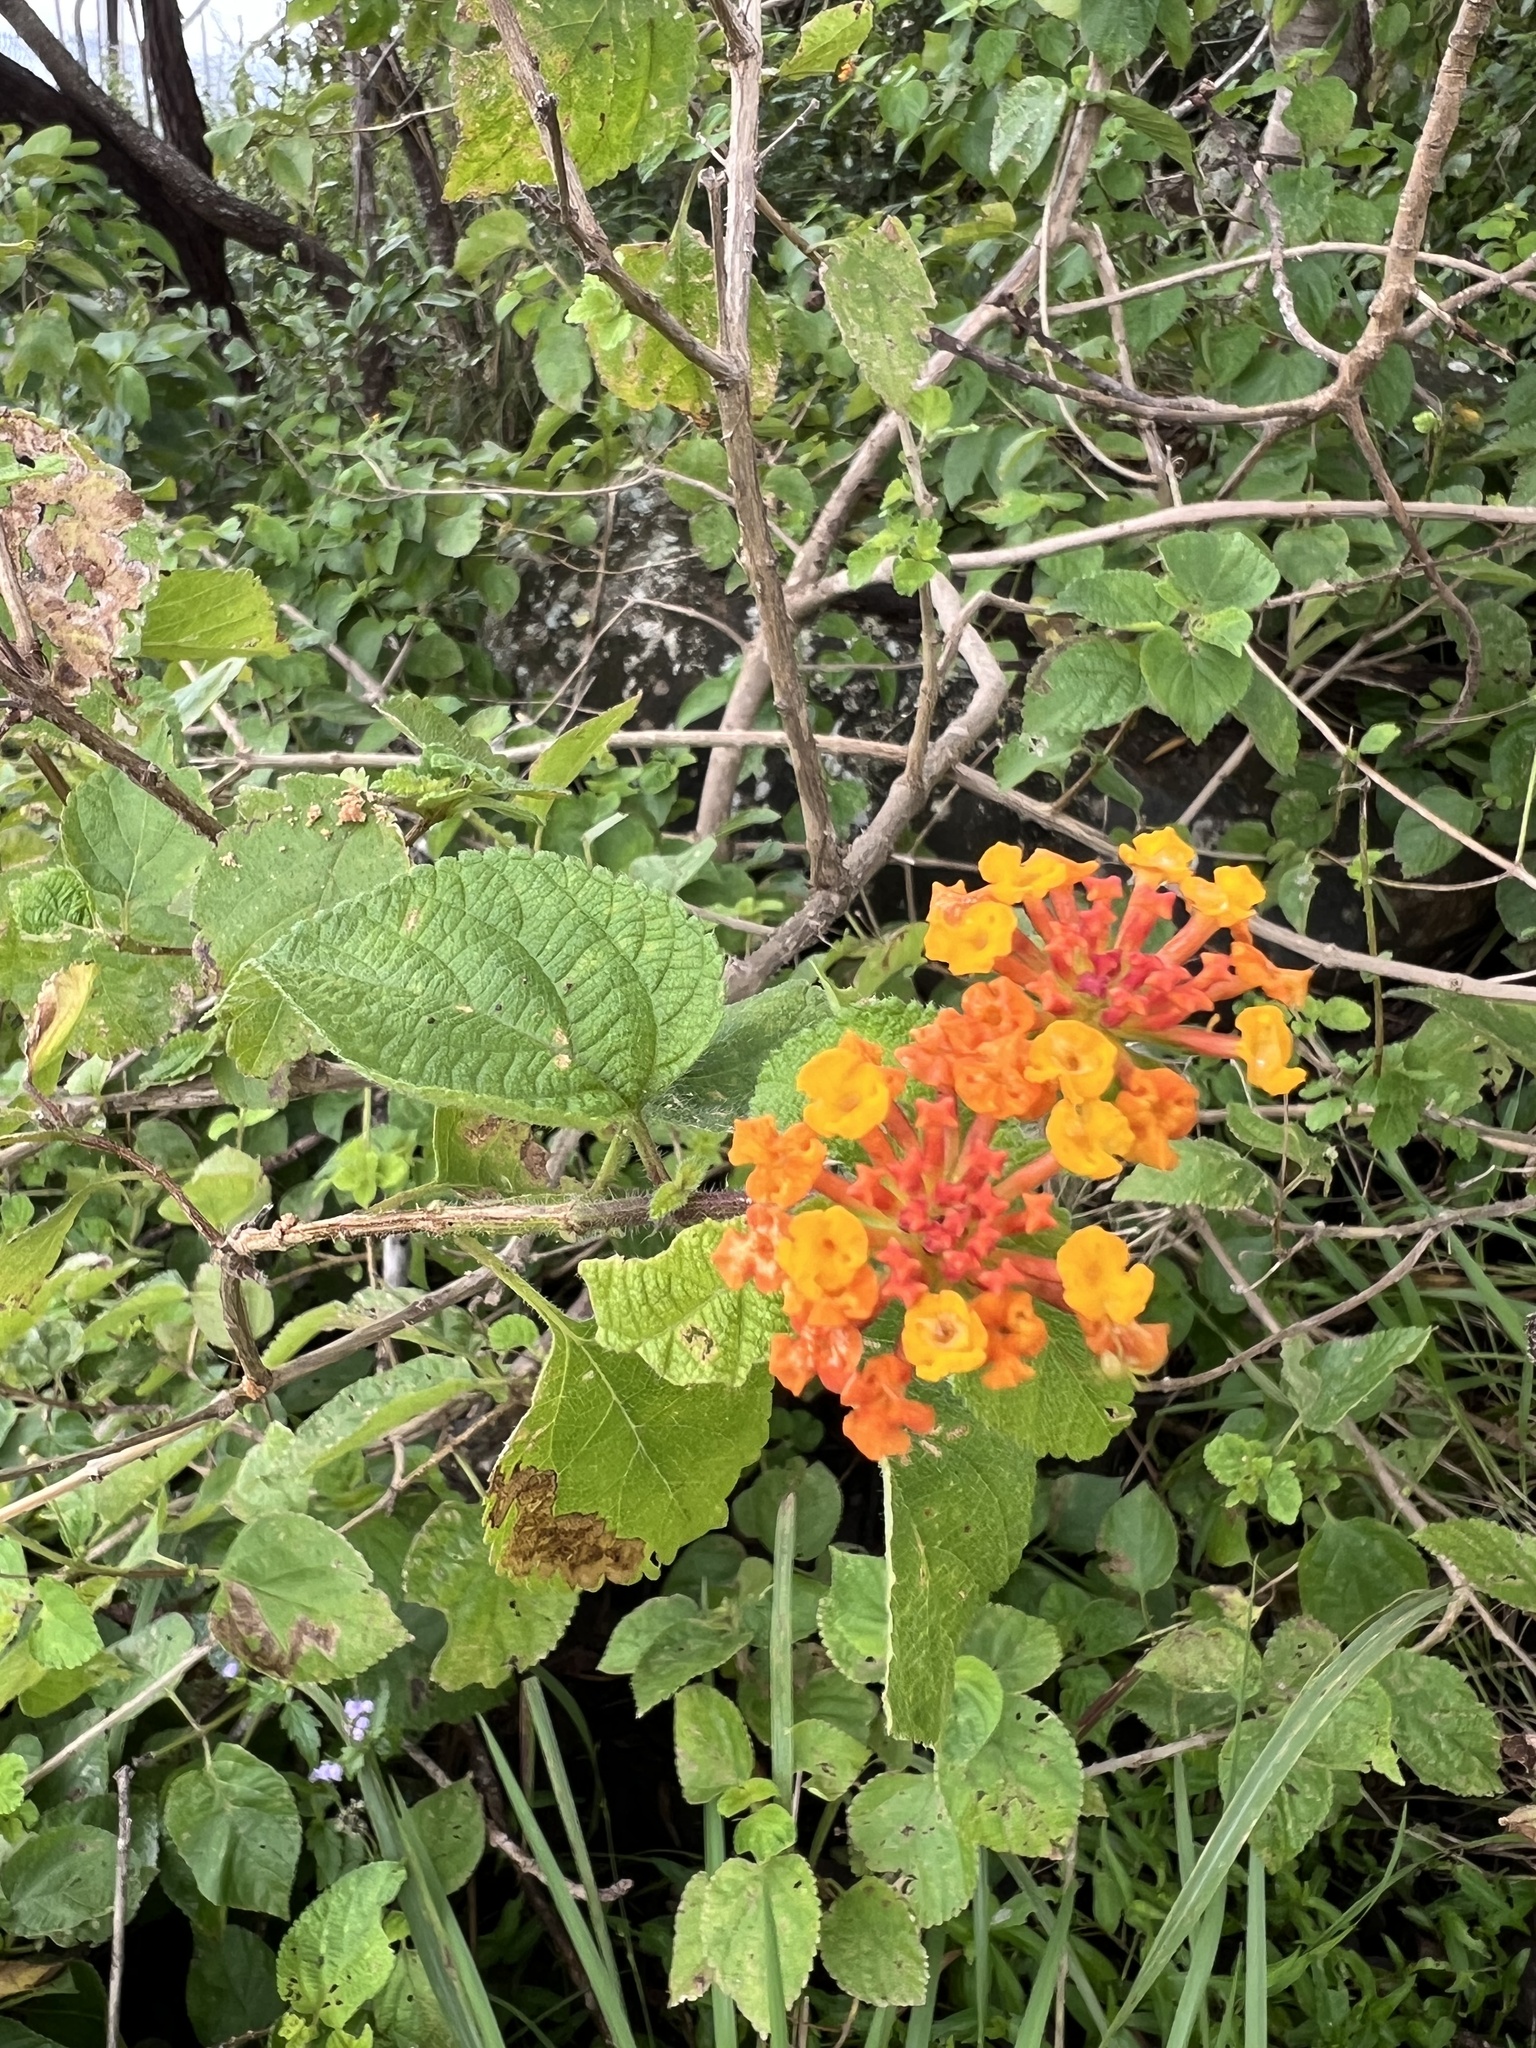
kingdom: Plantae
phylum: Tracheophyta
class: Magnoliopsida
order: Lamiales
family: Verbenaceae
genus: Lantana
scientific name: Lantana camara
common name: Lantana
